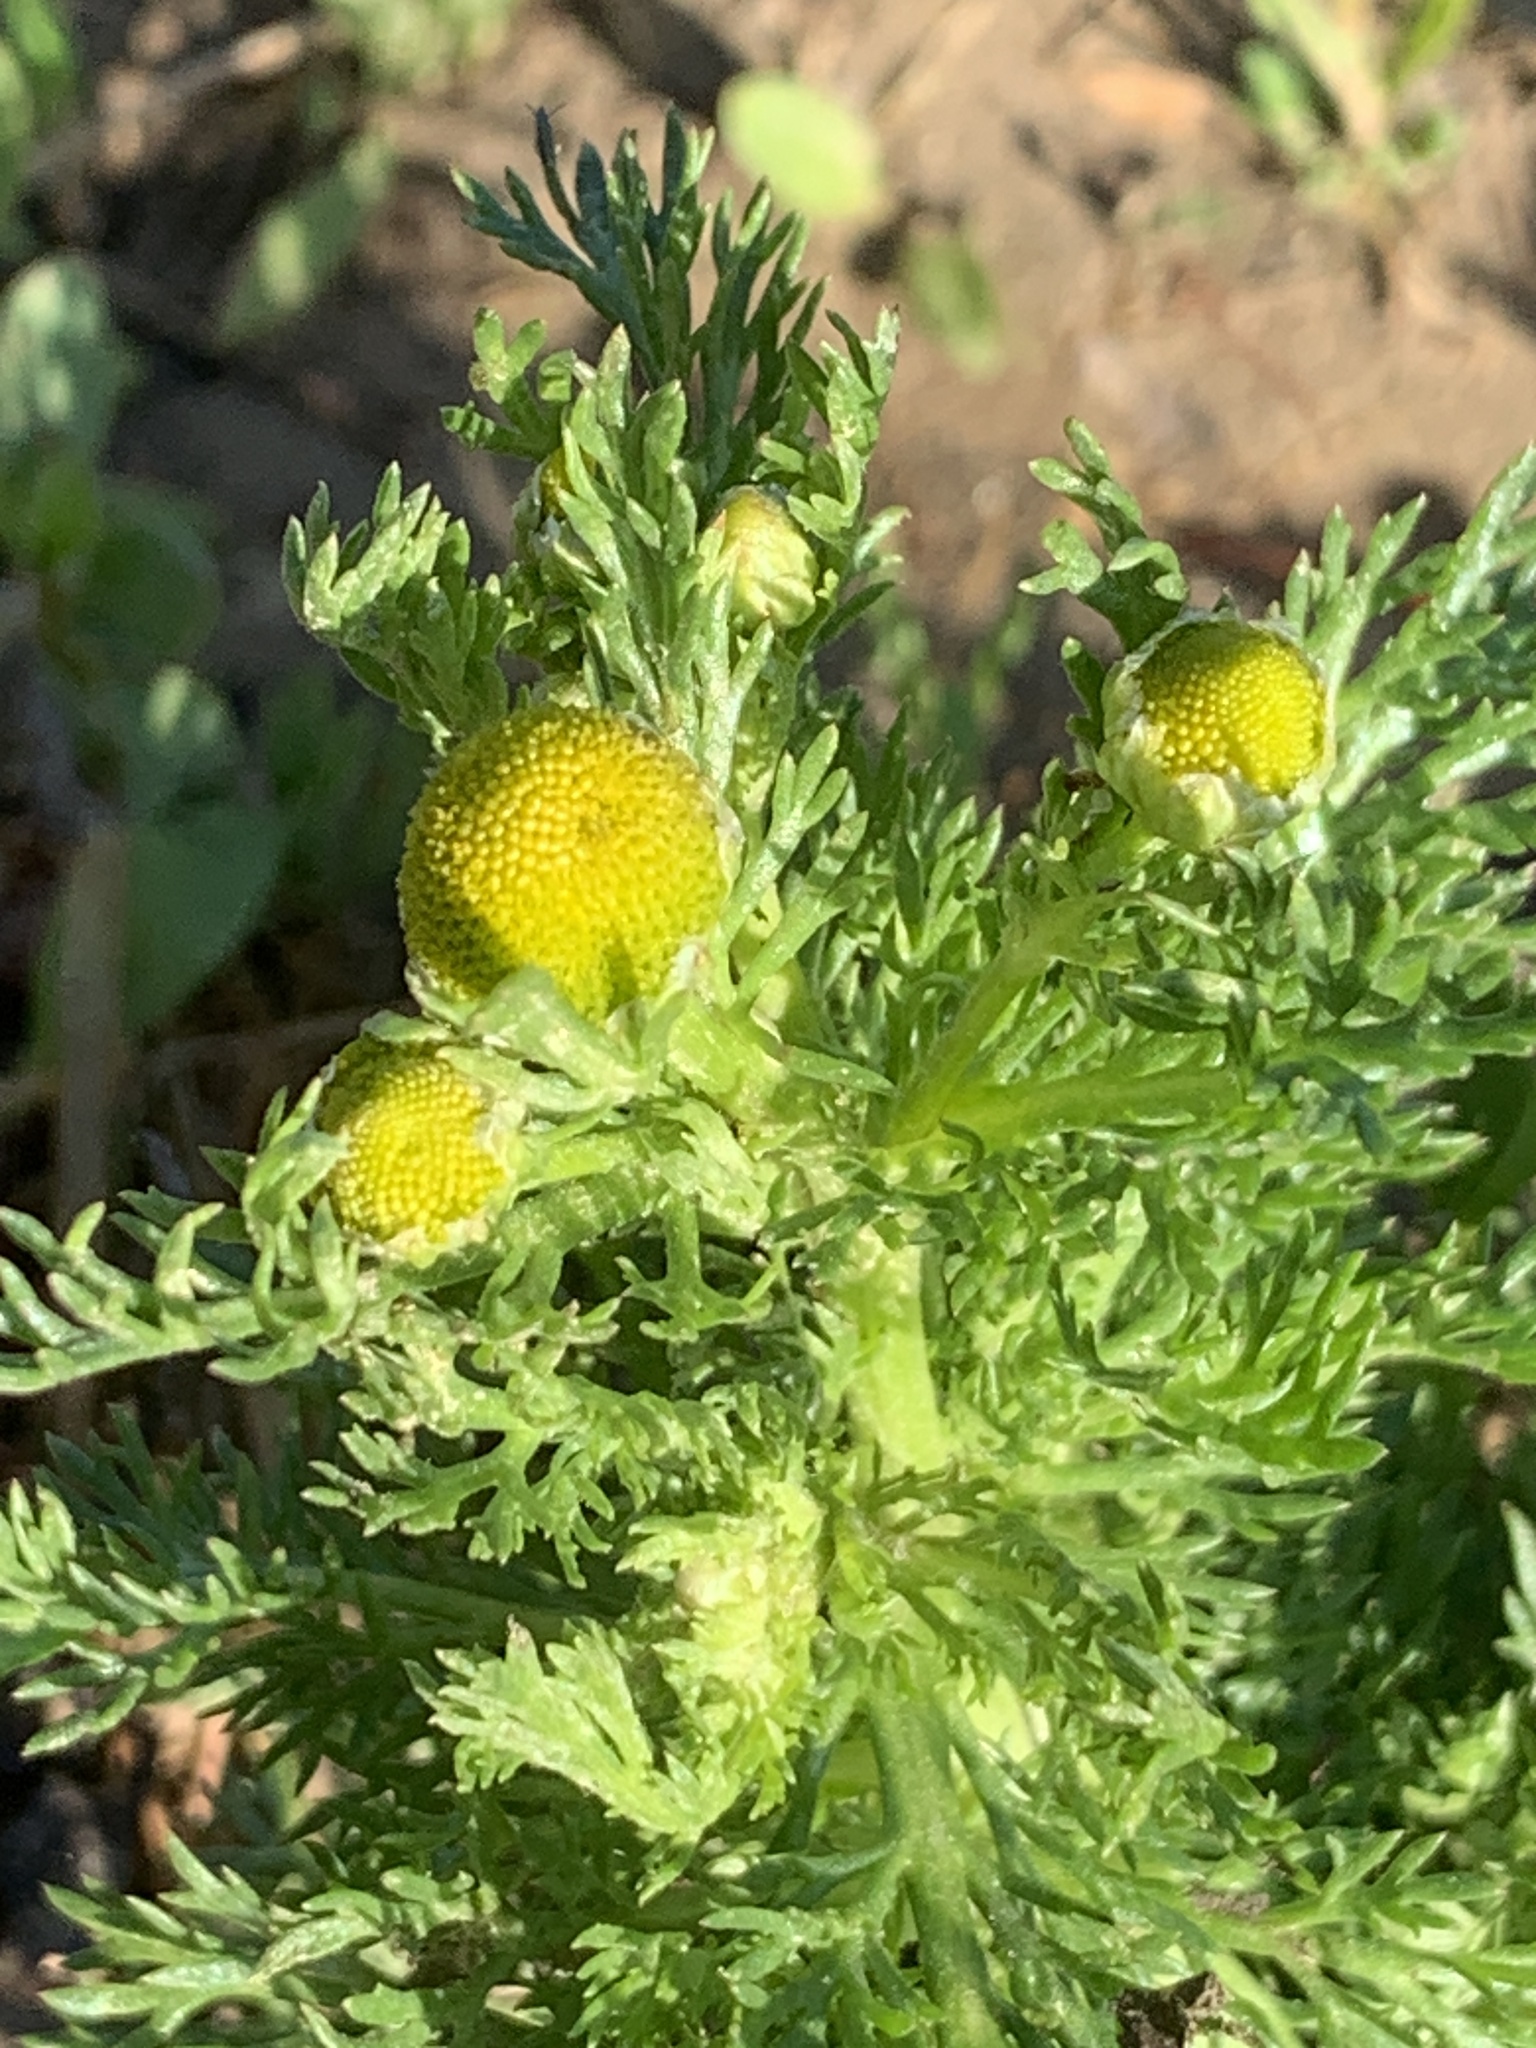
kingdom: Plantae
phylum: Tracheophyta
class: Magnoliopsida
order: Asterales
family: Asteraceae
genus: Matricaria
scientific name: Matricaria discoidea
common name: Disc mayweed
